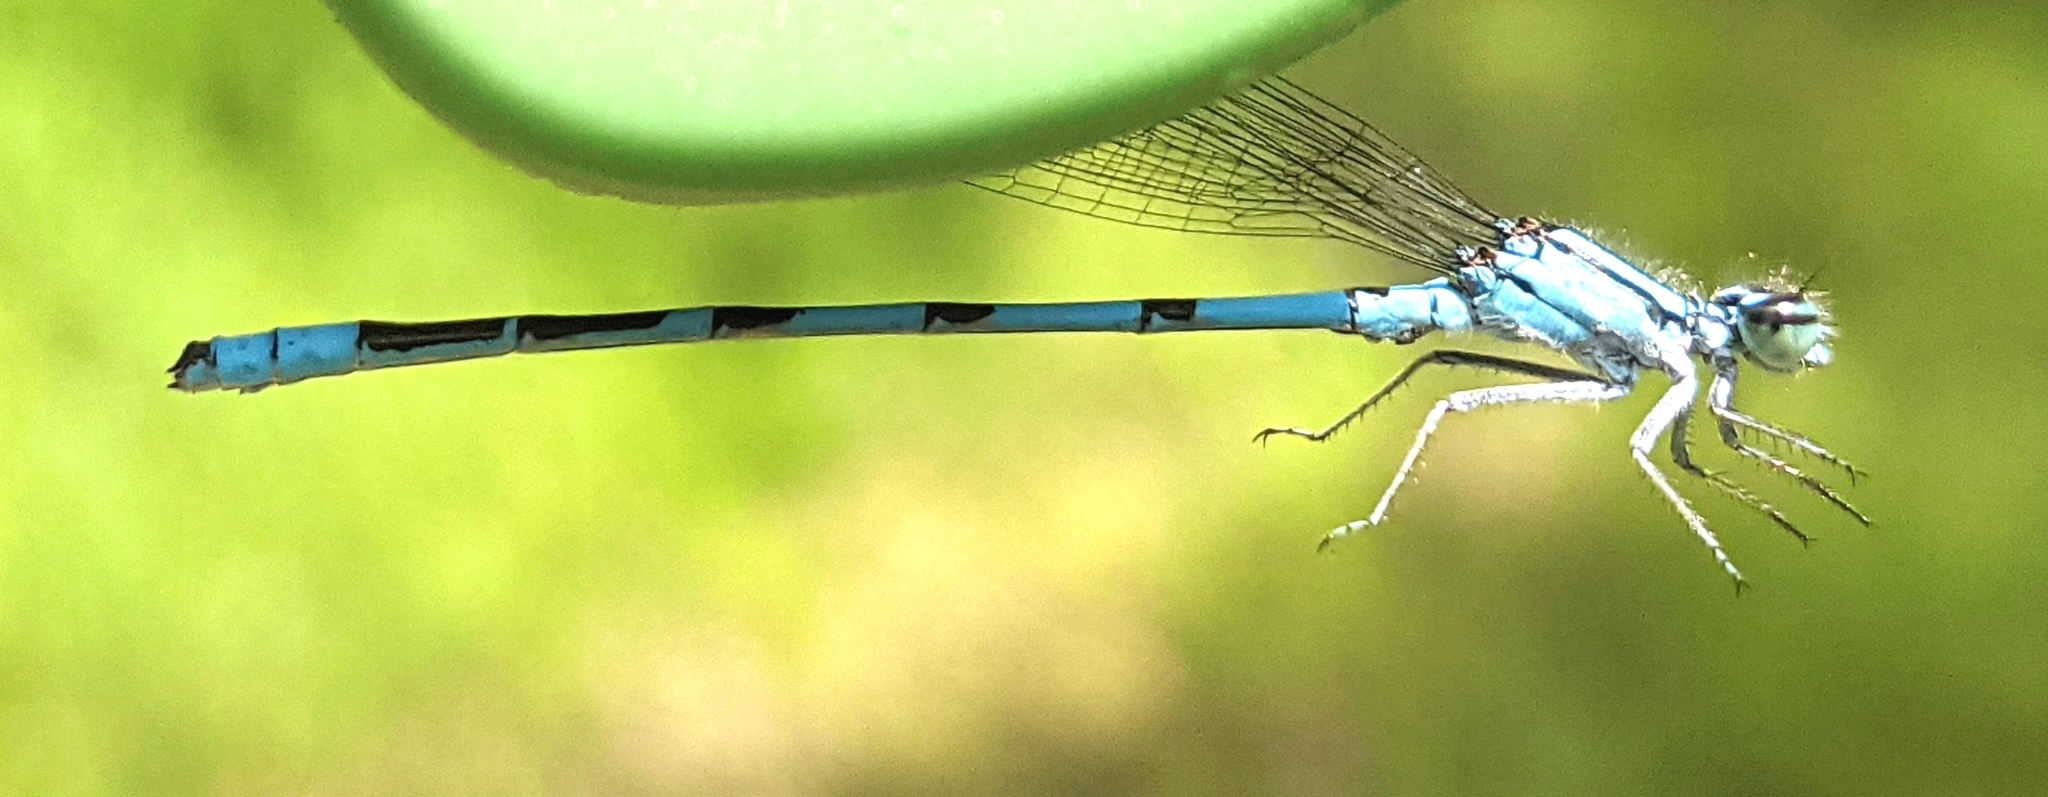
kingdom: Animalia
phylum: Arthropoda
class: Insecta
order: Odonata
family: Coenagrionidae
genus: Enallagma
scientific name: Enallagma hageni
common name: Hagen's bluet
